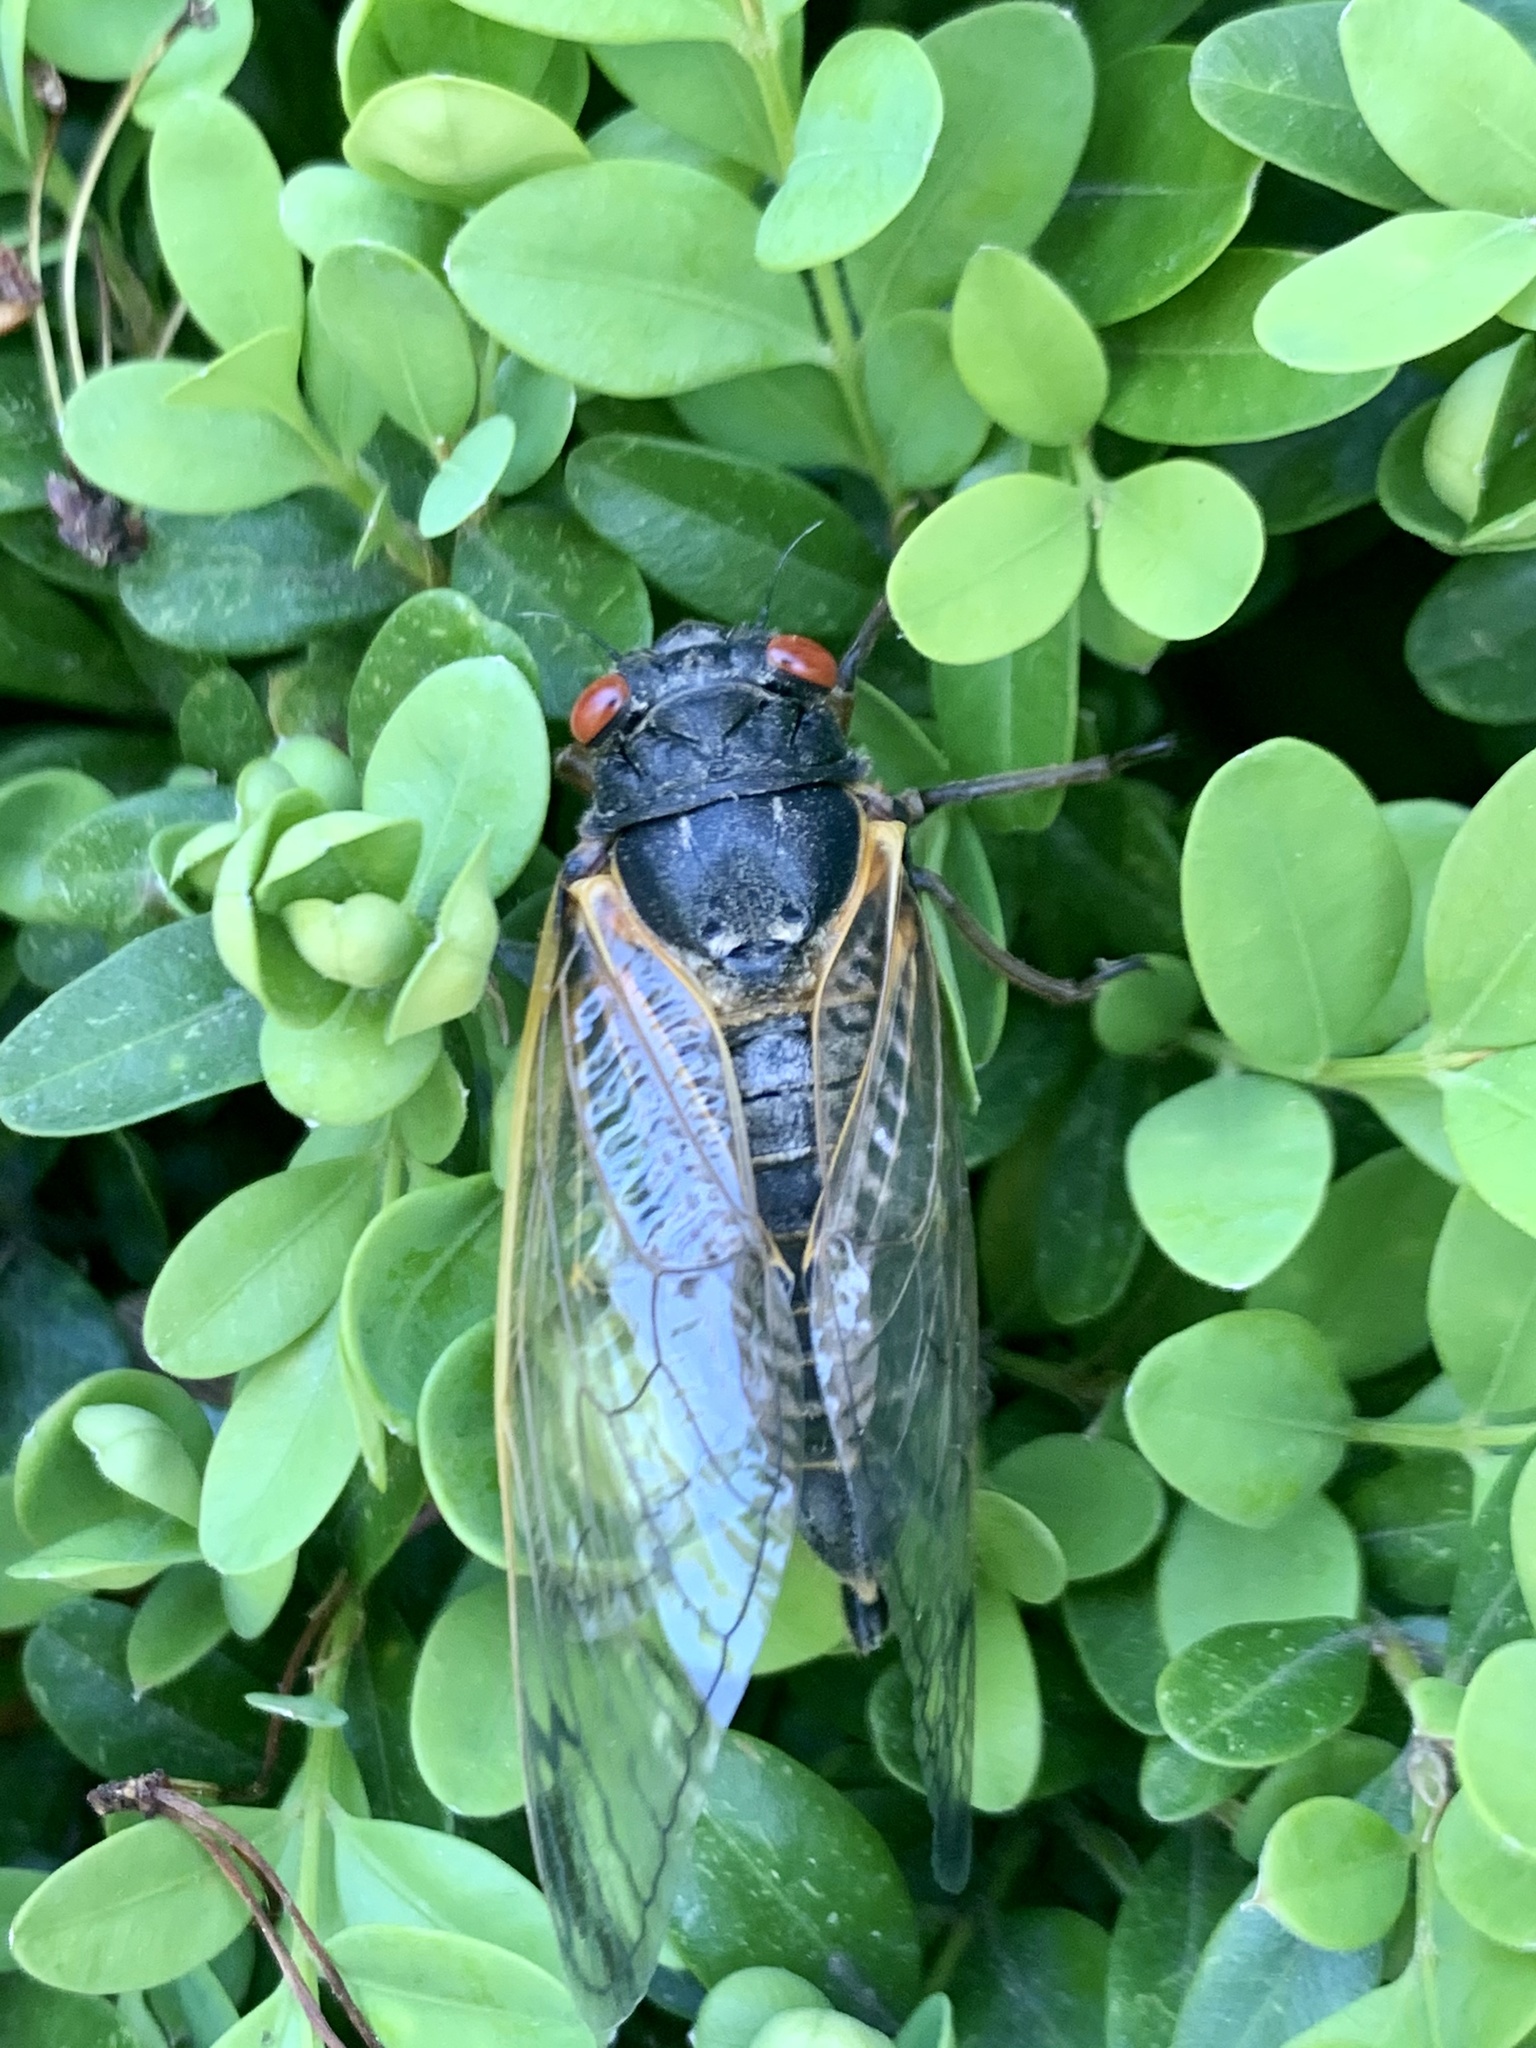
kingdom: Animalia
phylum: Arthropoda
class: Insecta
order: Hemiptera
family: Cicadidae
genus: Magicicada
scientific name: Magicicada
